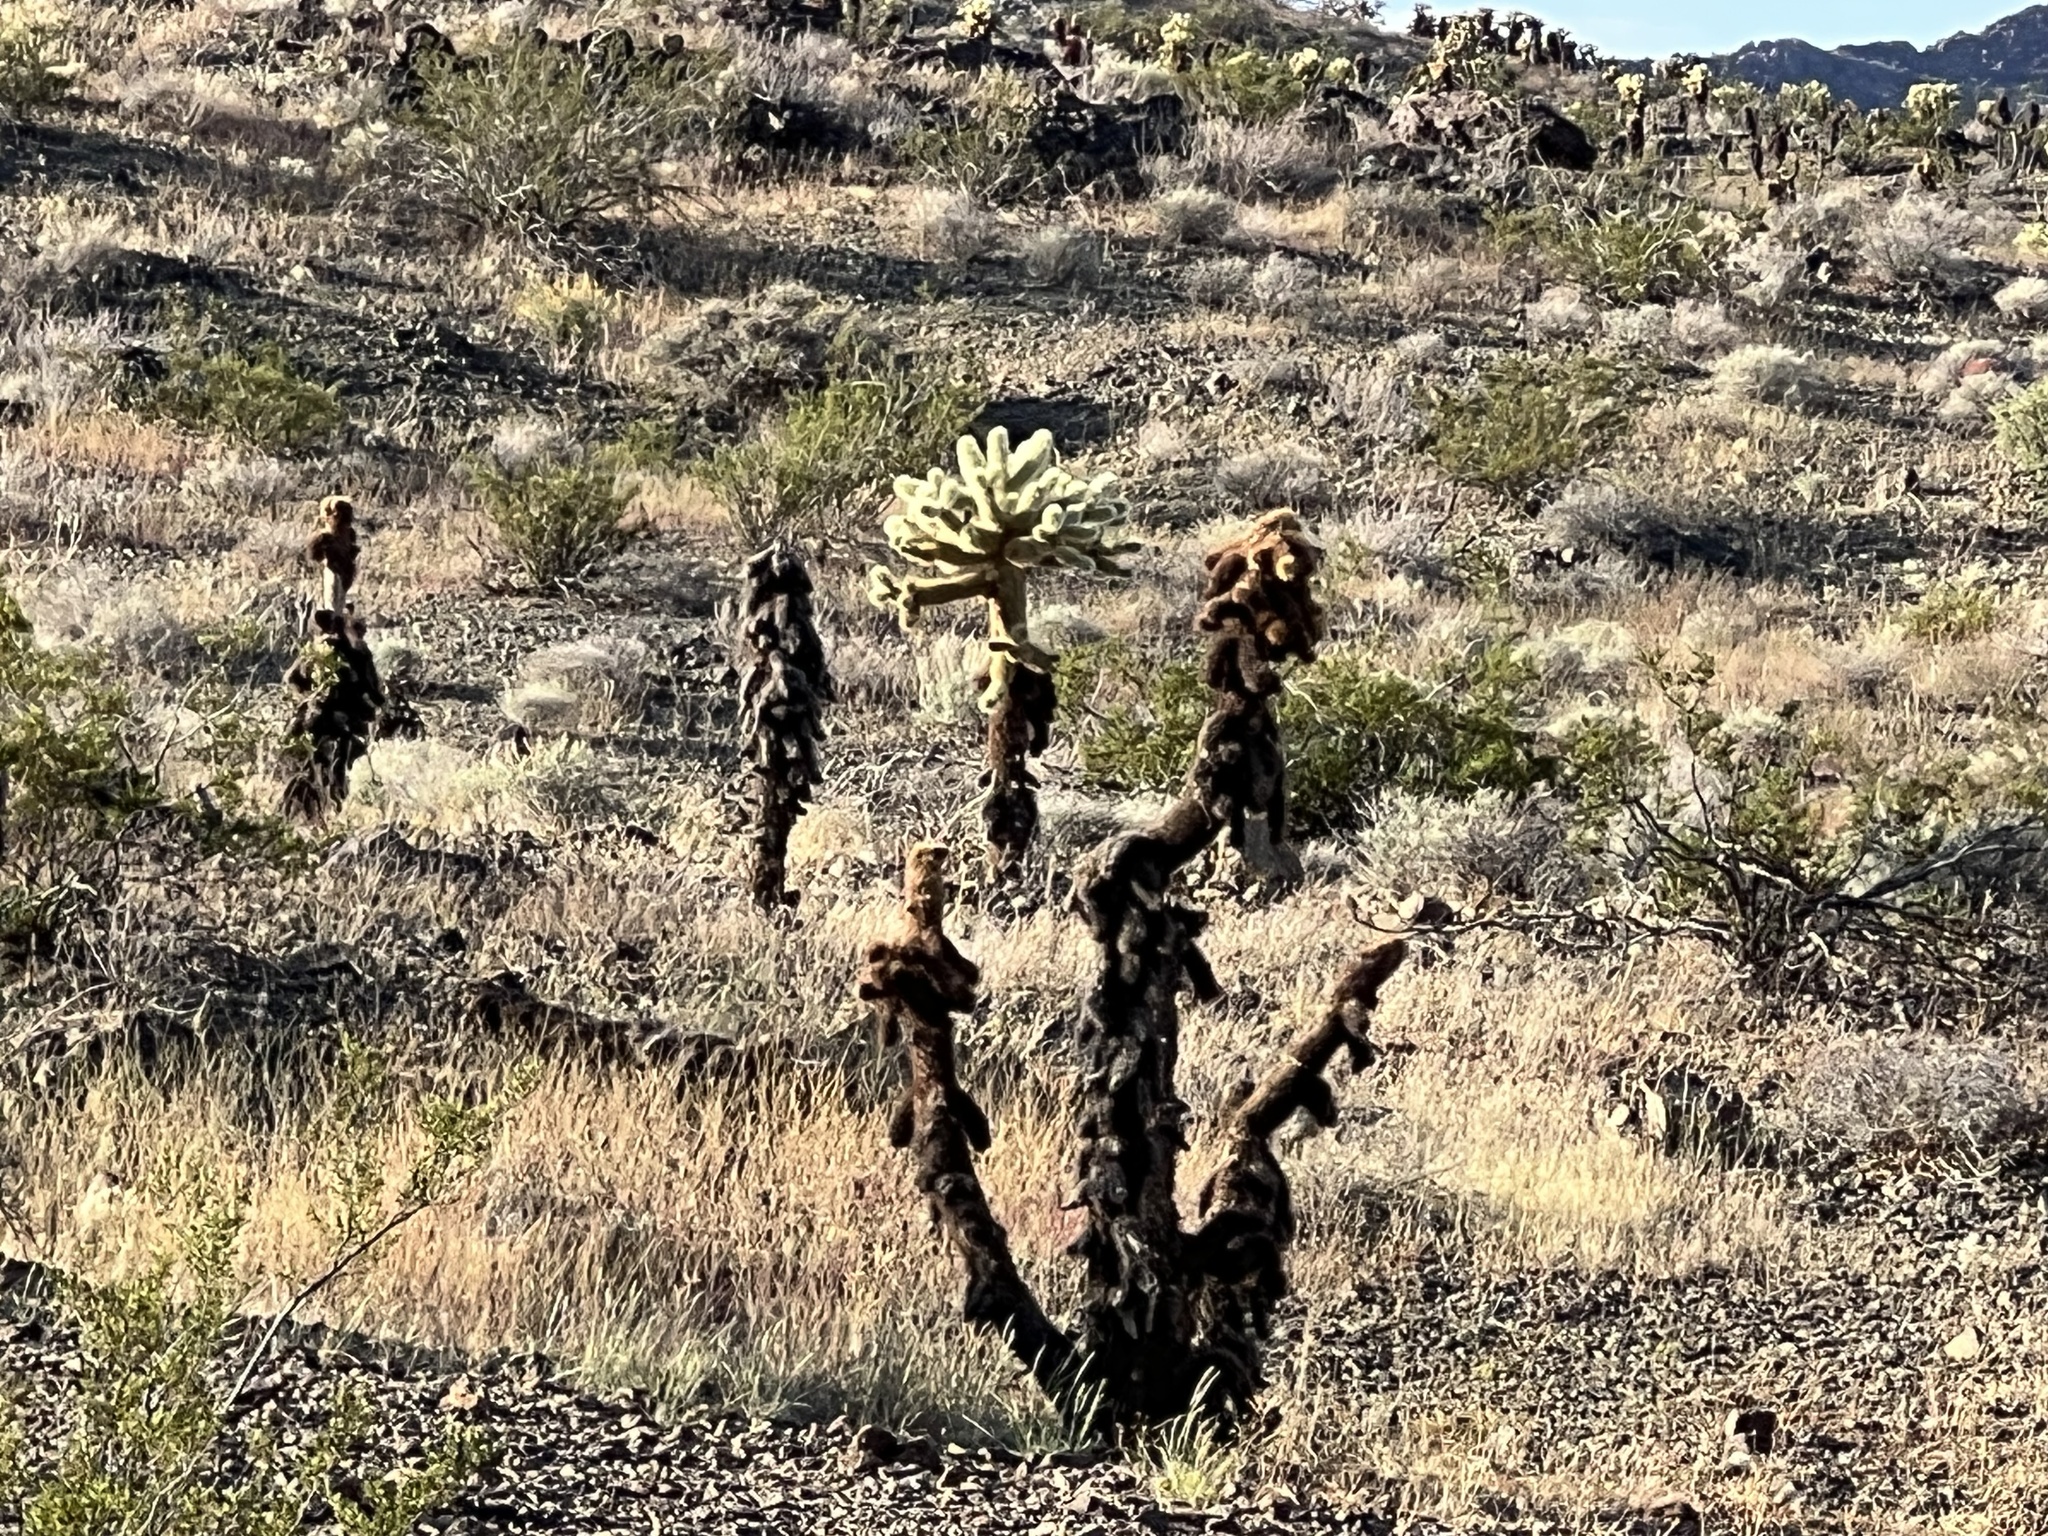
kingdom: Plantae
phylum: Tracheophyta
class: Magnoliopsida
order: Caryophyllales
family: Cactaceae
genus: Cylindropuntia
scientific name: Cylindropuntia fosbergii
